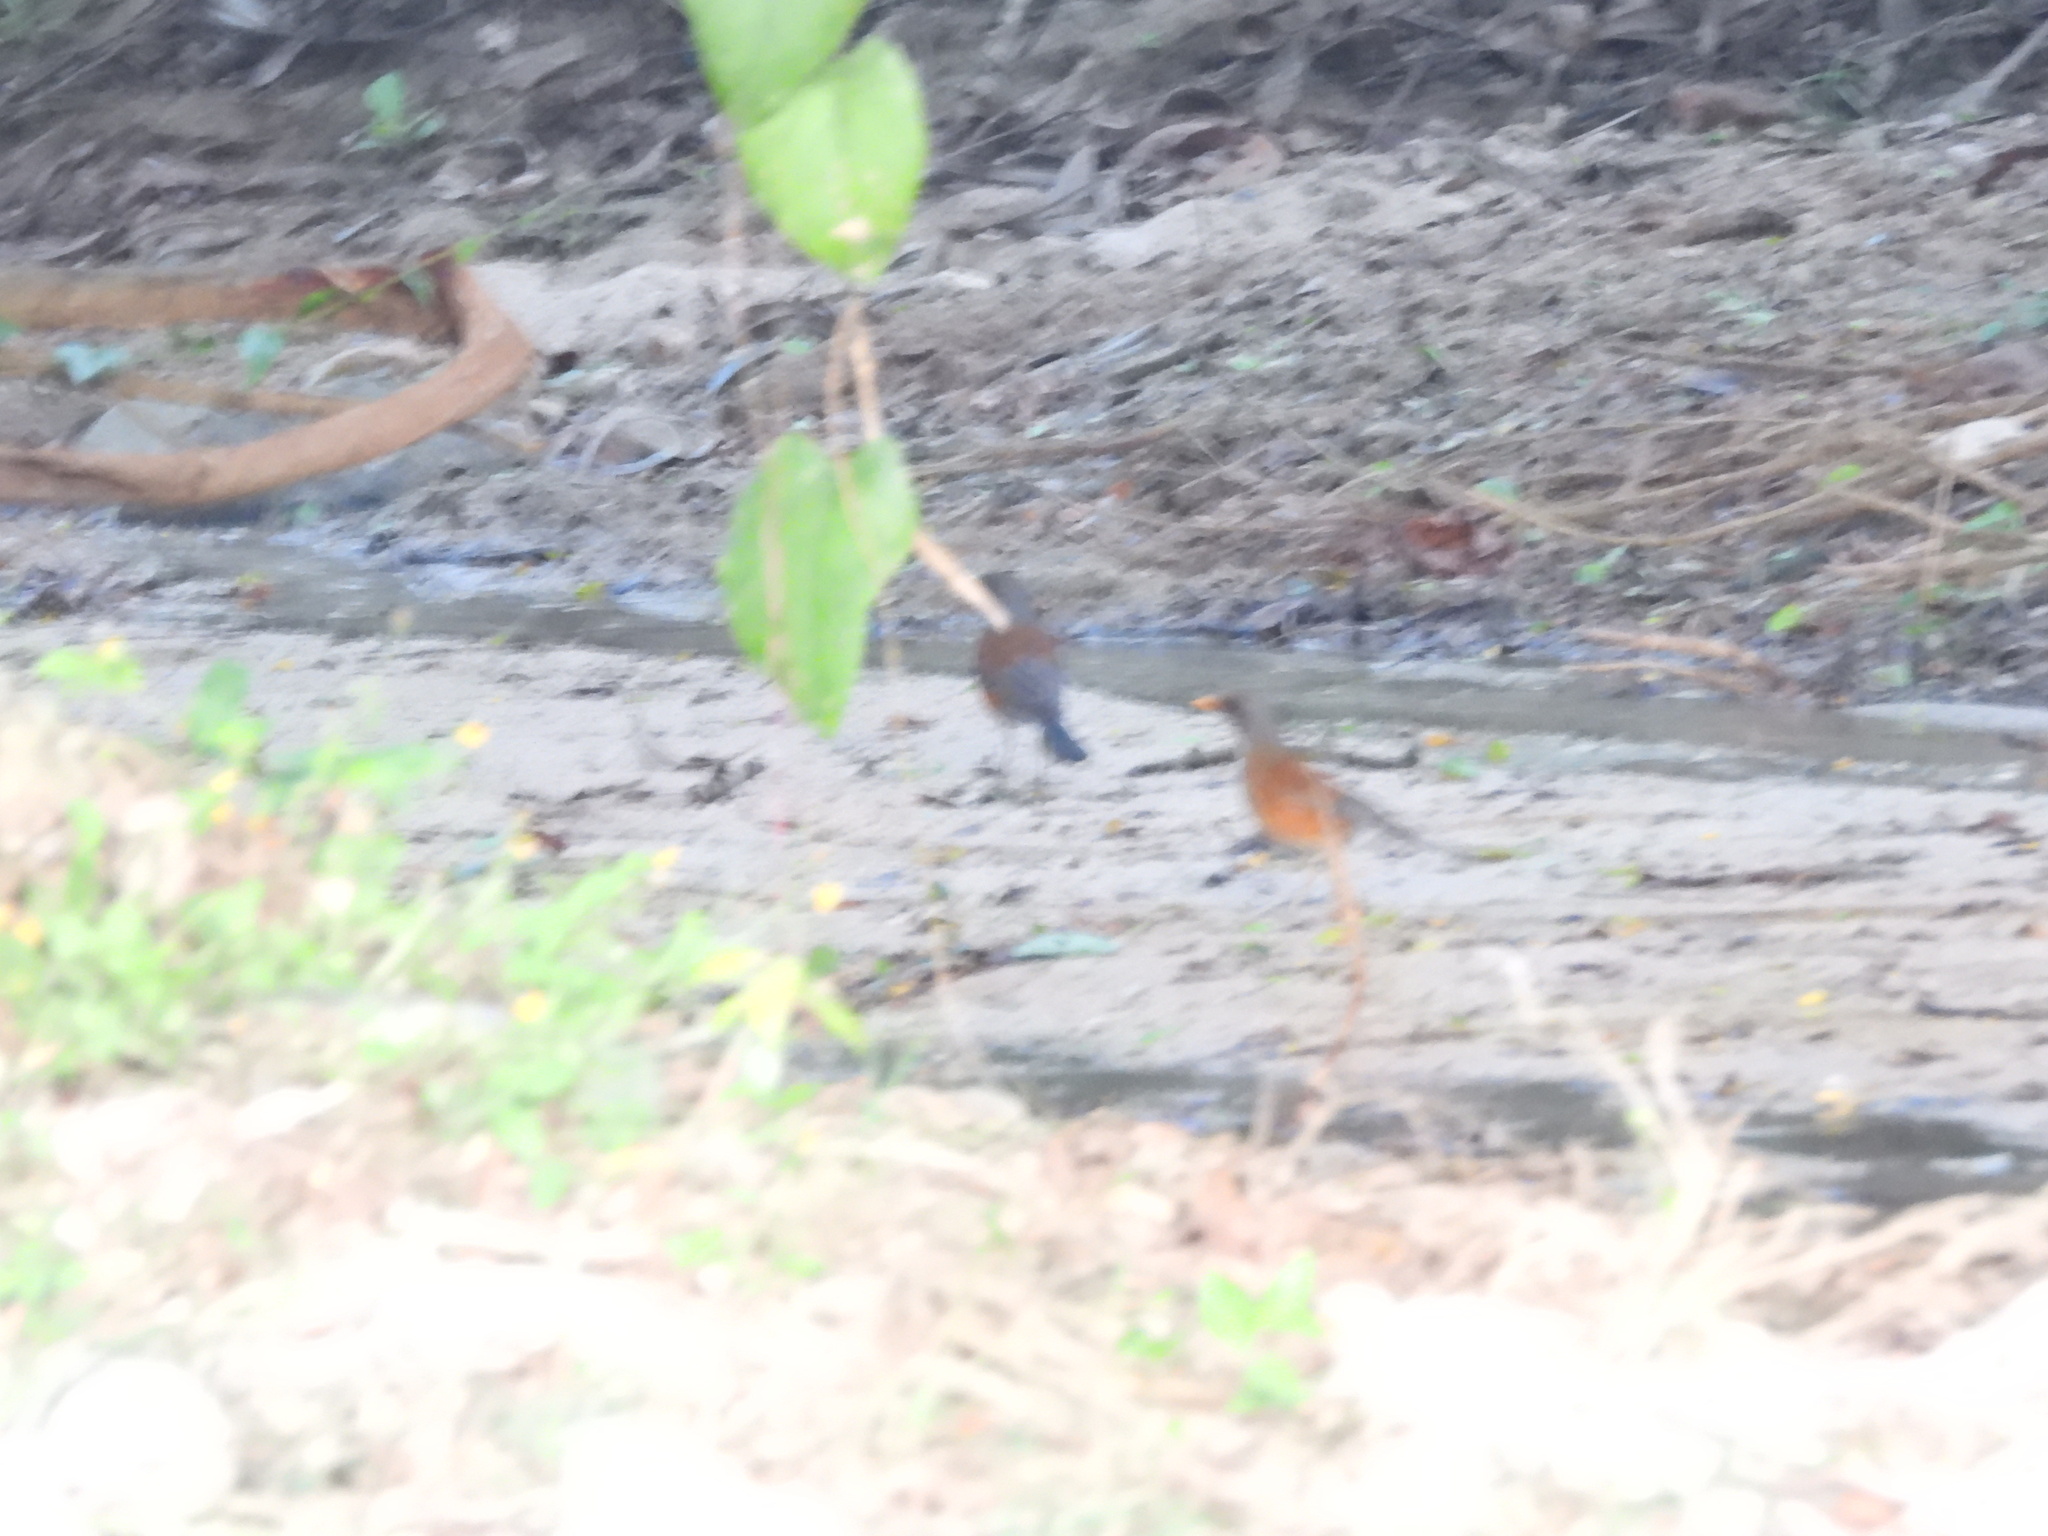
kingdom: Animalia
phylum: Chordata
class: Aves
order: Passeriformes
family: Turdidae
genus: Turdus
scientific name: Turdus rufopalliatus
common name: Rufous-backed robin
